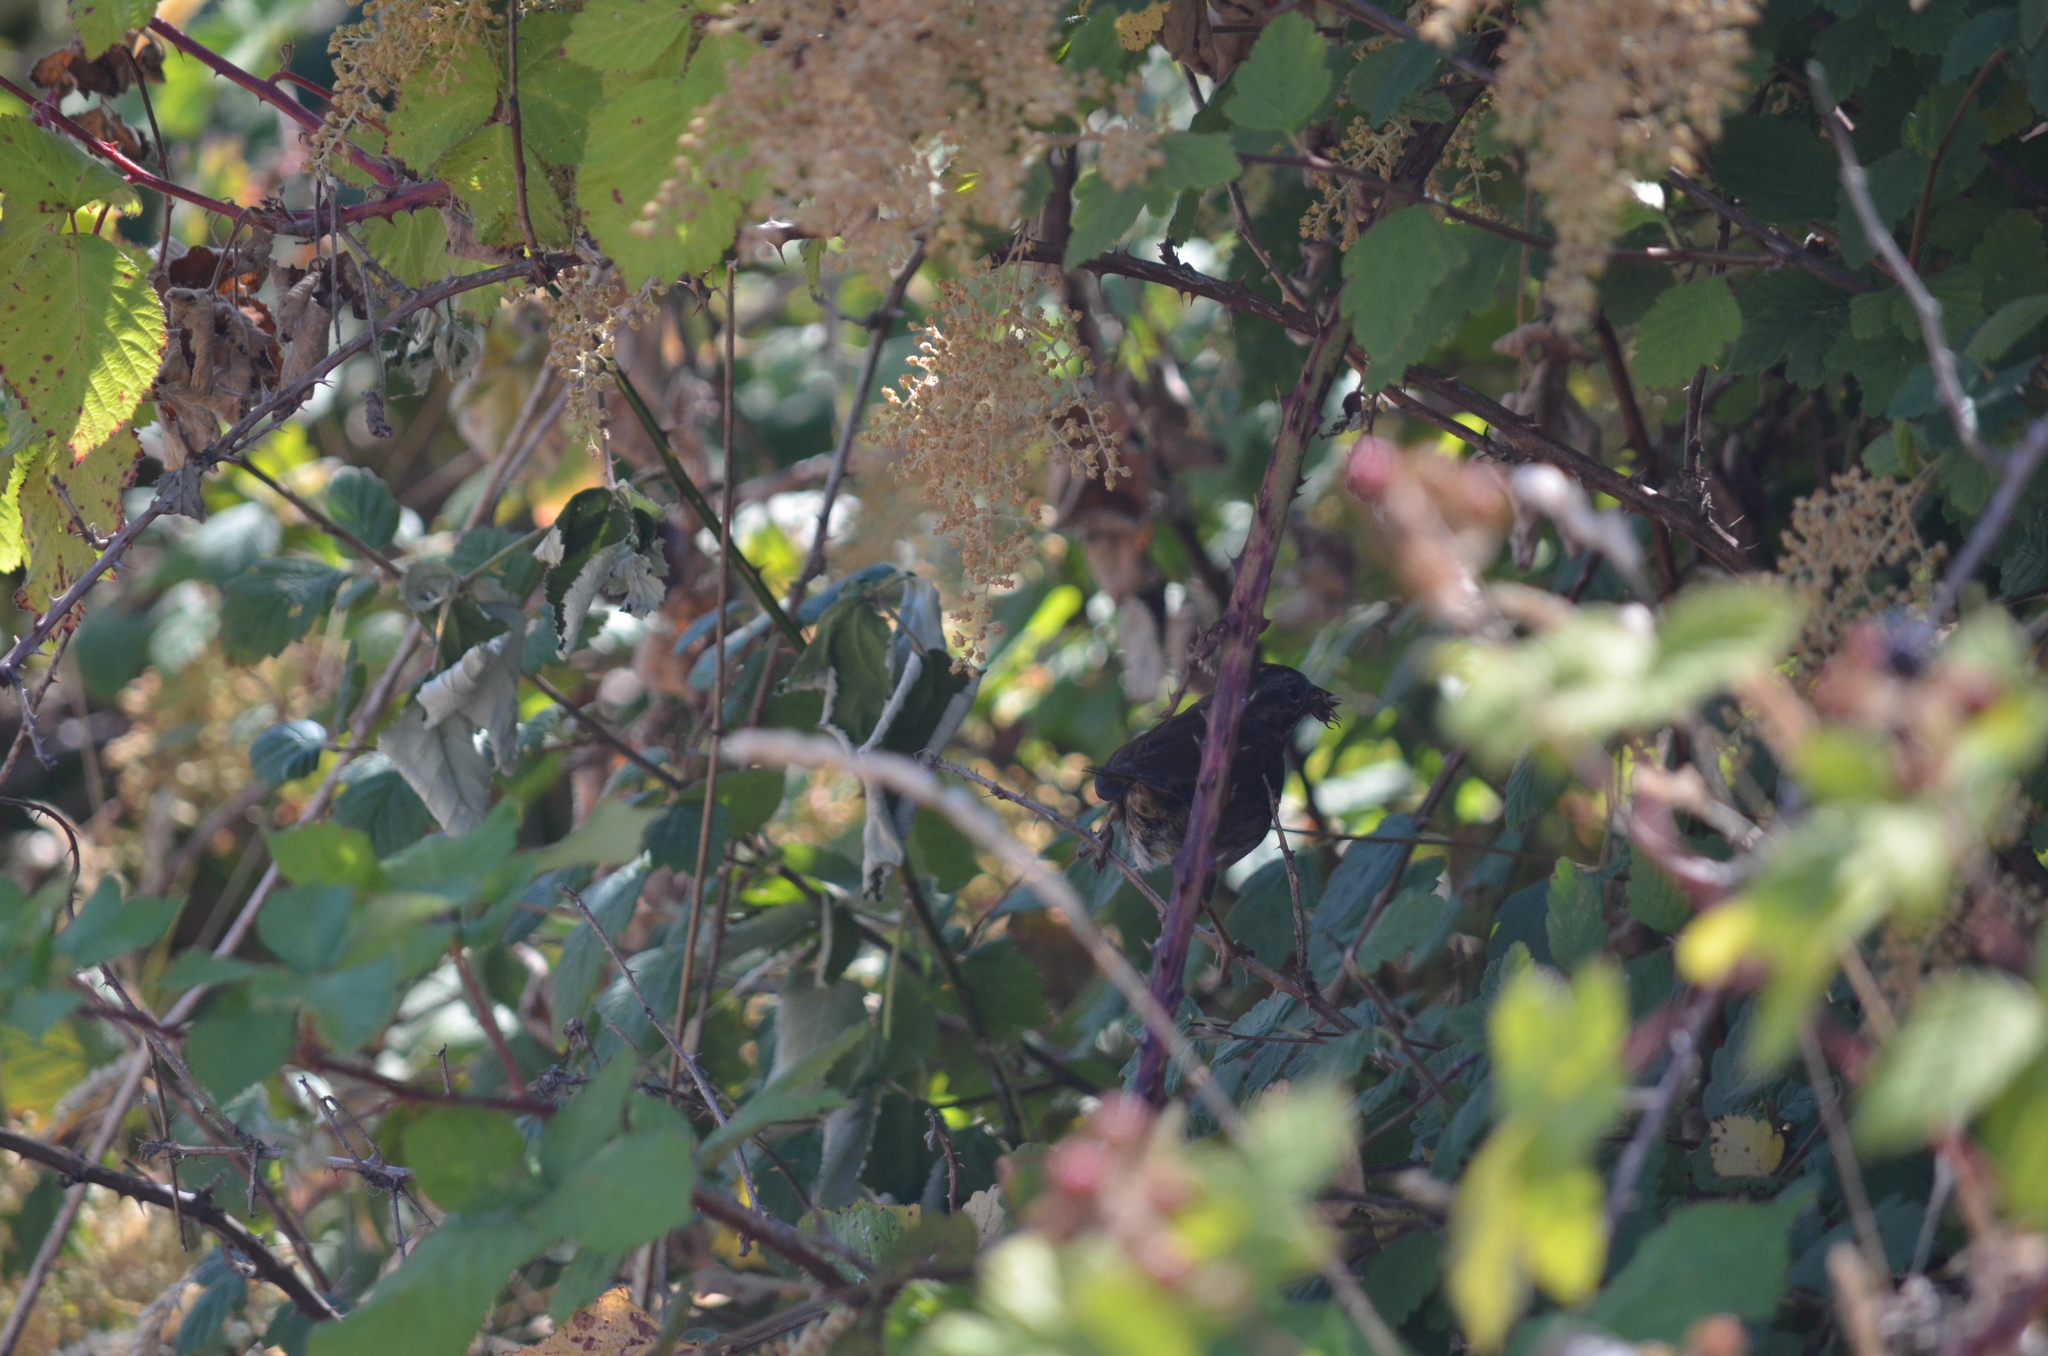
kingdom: Plantae
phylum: Tracheophyta
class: Magnoliopsida
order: Rosales
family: Rosaceae
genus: Holodiscus
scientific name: Holodiscus discolor
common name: Oceanspray
